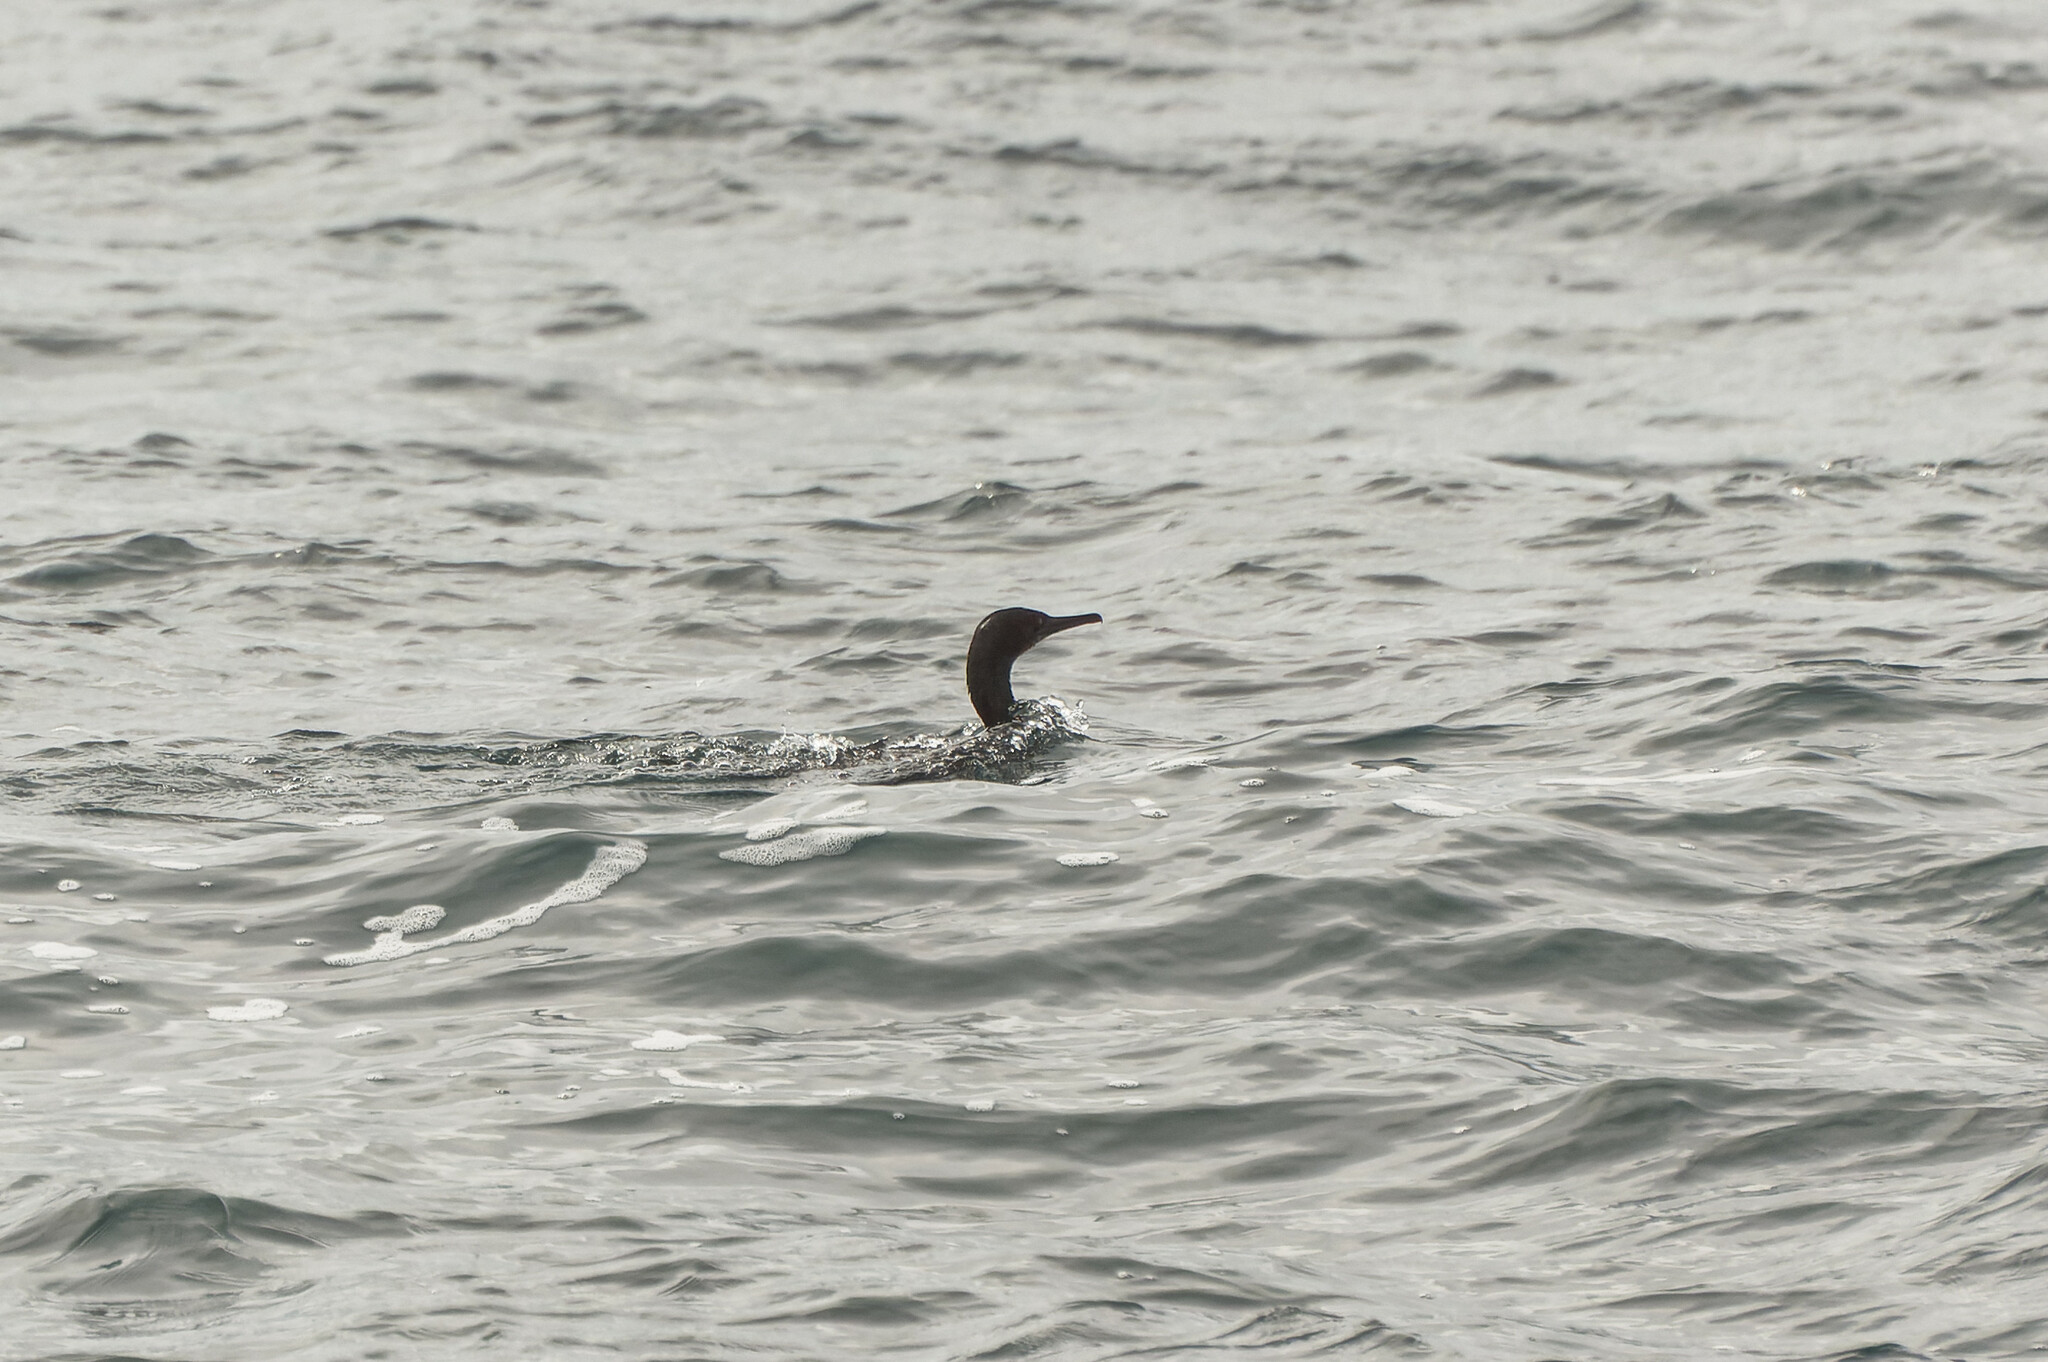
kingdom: Animalia
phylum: Chordata
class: Aves
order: Suliformes
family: Phalacrocoracidae
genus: Urile
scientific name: Urile penicillatus
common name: Brandt's cormorant
